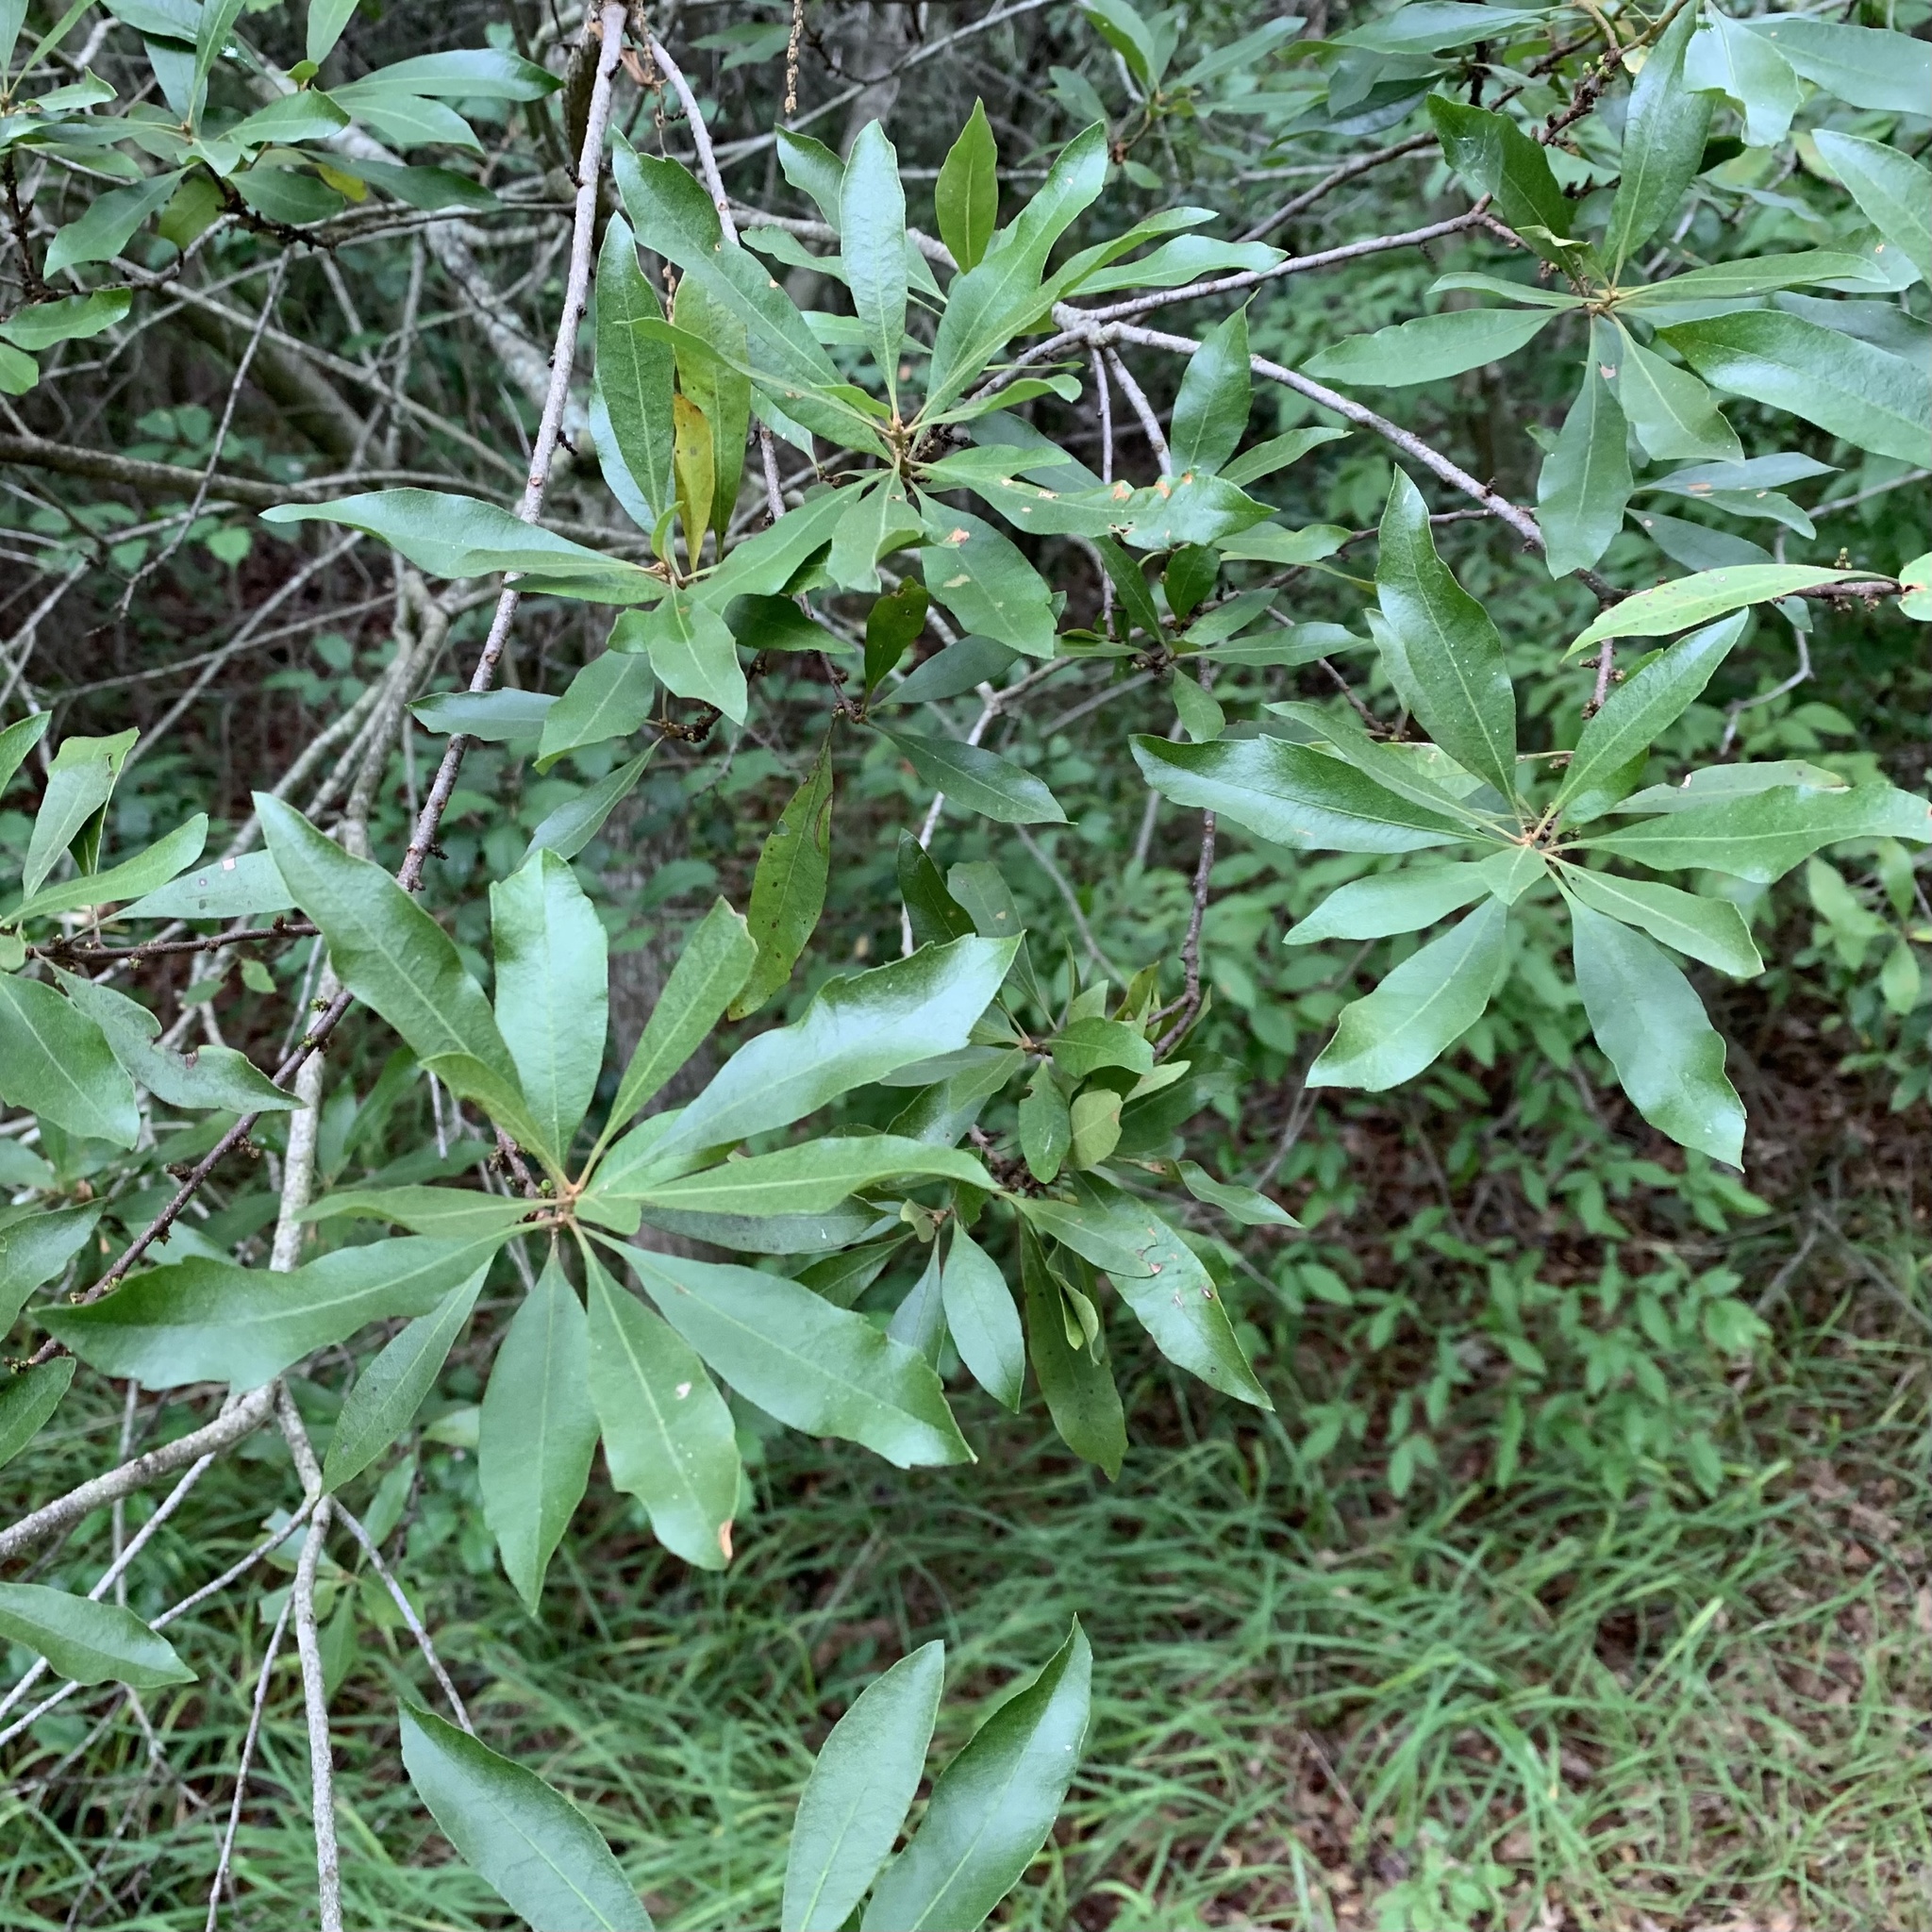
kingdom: Plantae
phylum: Tracheophyta
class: Magnoliopsida
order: Fagales
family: Myricaceae
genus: Morella
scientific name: Morella cerifera
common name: Wax myrtle
